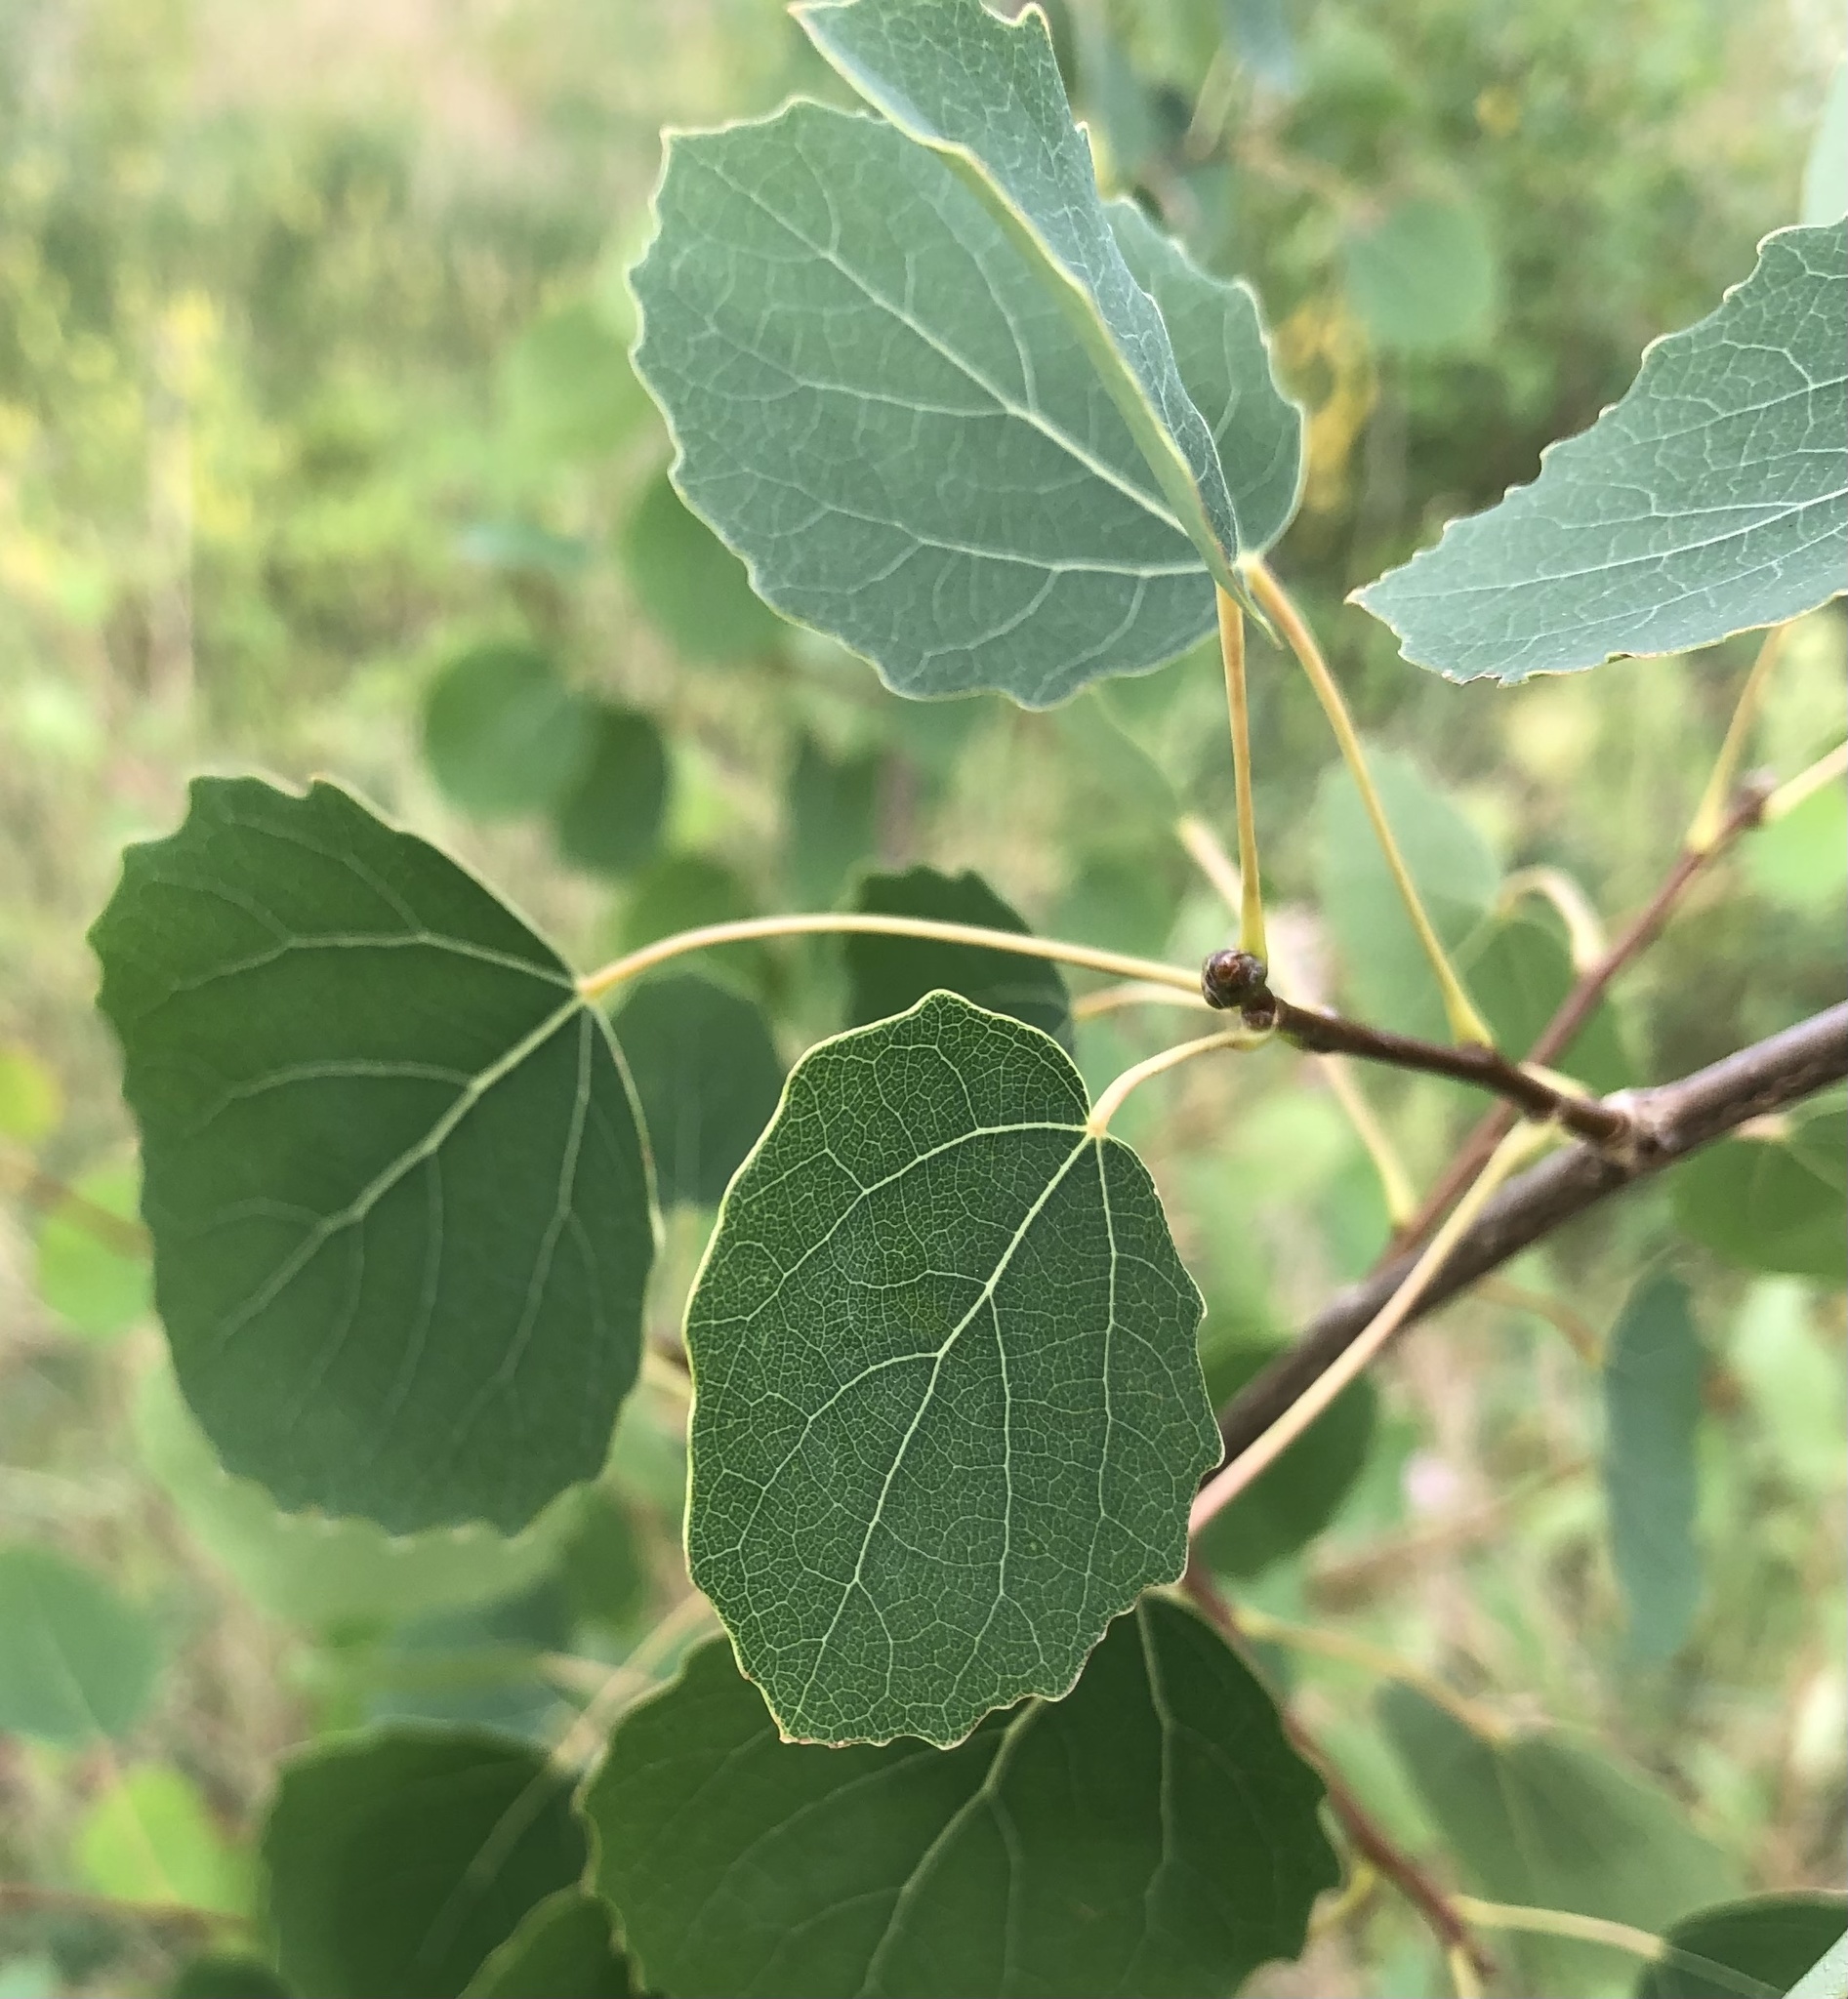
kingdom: Plantae
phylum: Tracheophyta
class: Magnoliopsida
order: Malpighiales
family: Salicaceae
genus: Populus
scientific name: Populus tremula
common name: European aspen
